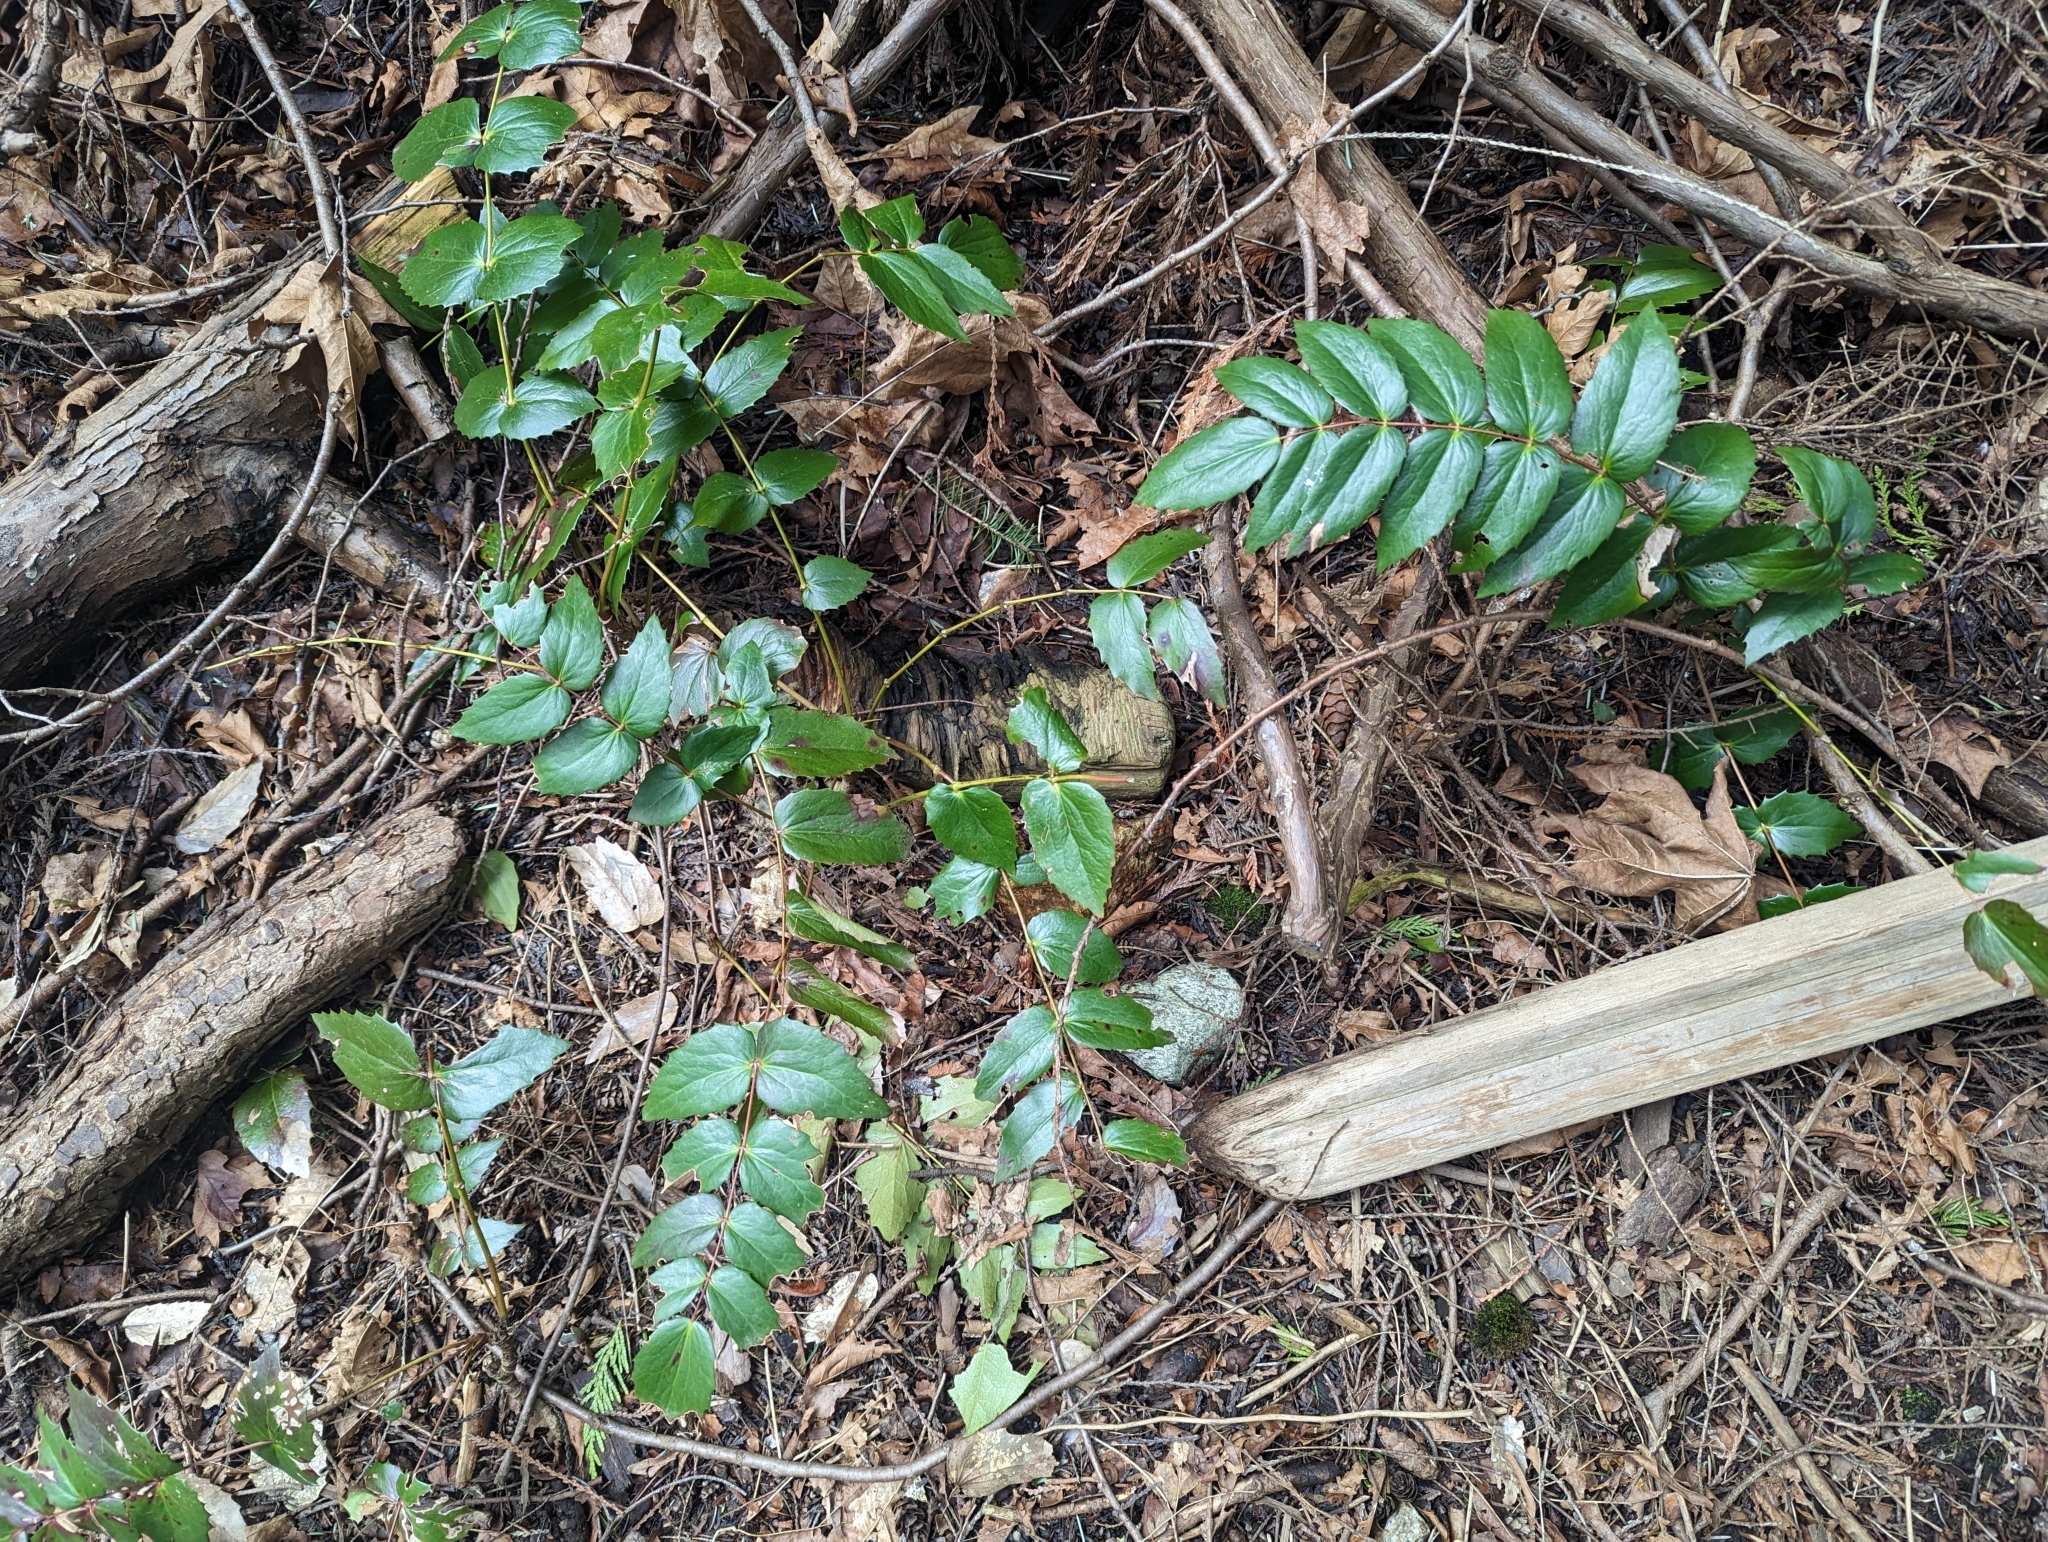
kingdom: Plantae
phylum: Tracheophyta
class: Magnoliopsida
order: Ranunculales
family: Berberidaceae
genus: Mahonia
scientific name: Mahonia nervosa
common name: Cascade oregon-grape
